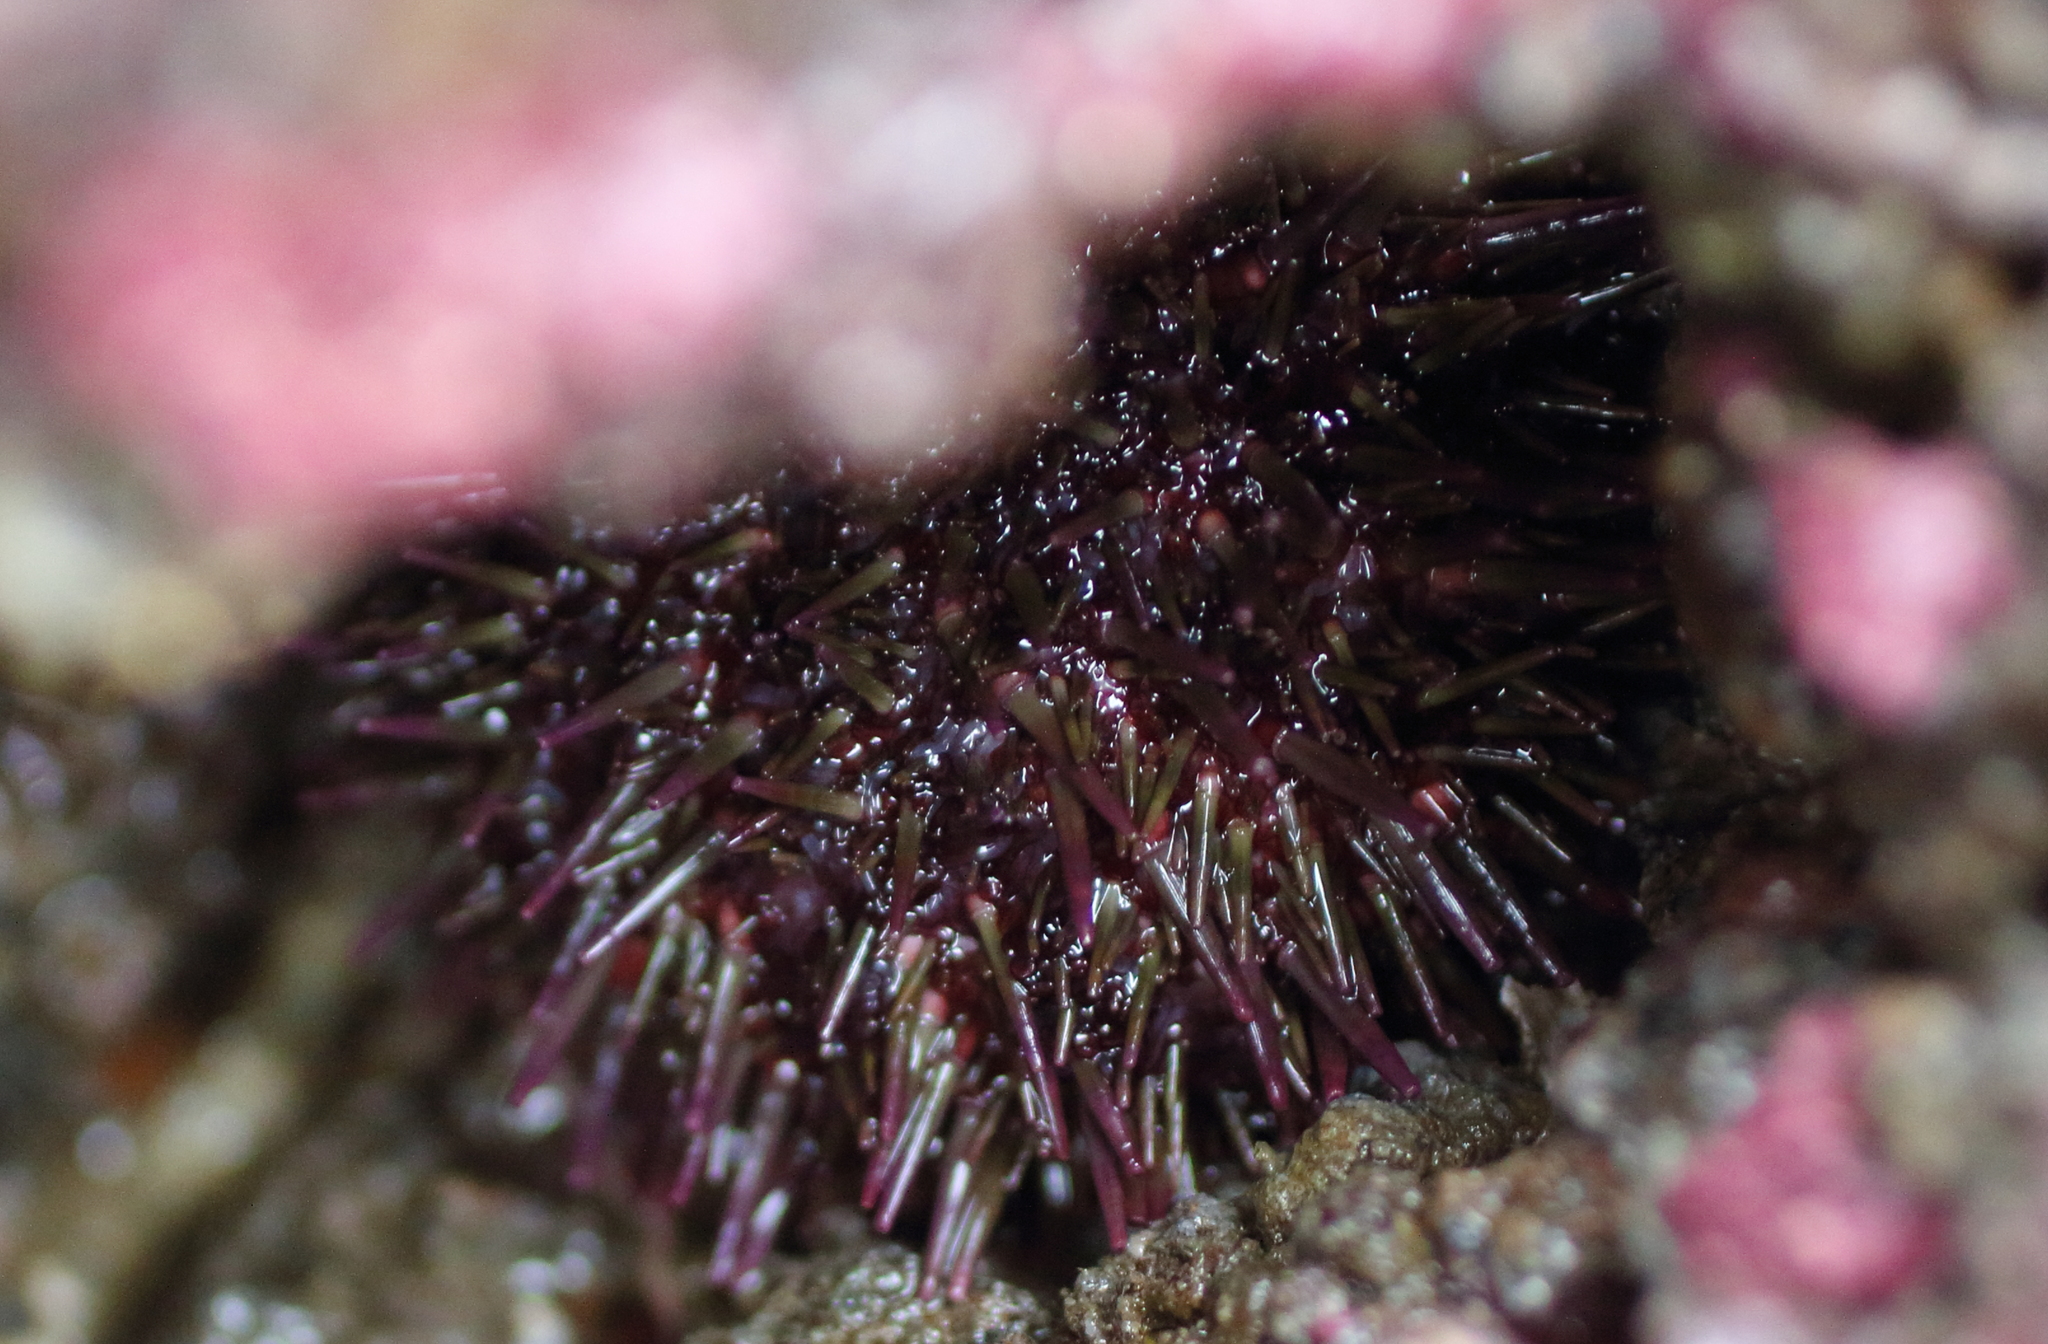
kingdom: Animalia
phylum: Echinodermata
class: Echinoidea
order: Camarodonta
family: Strongylocentrotidae
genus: Strongylocentrotus
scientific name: Strongylocentrotus purpuratus
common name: Purple sea urchin
